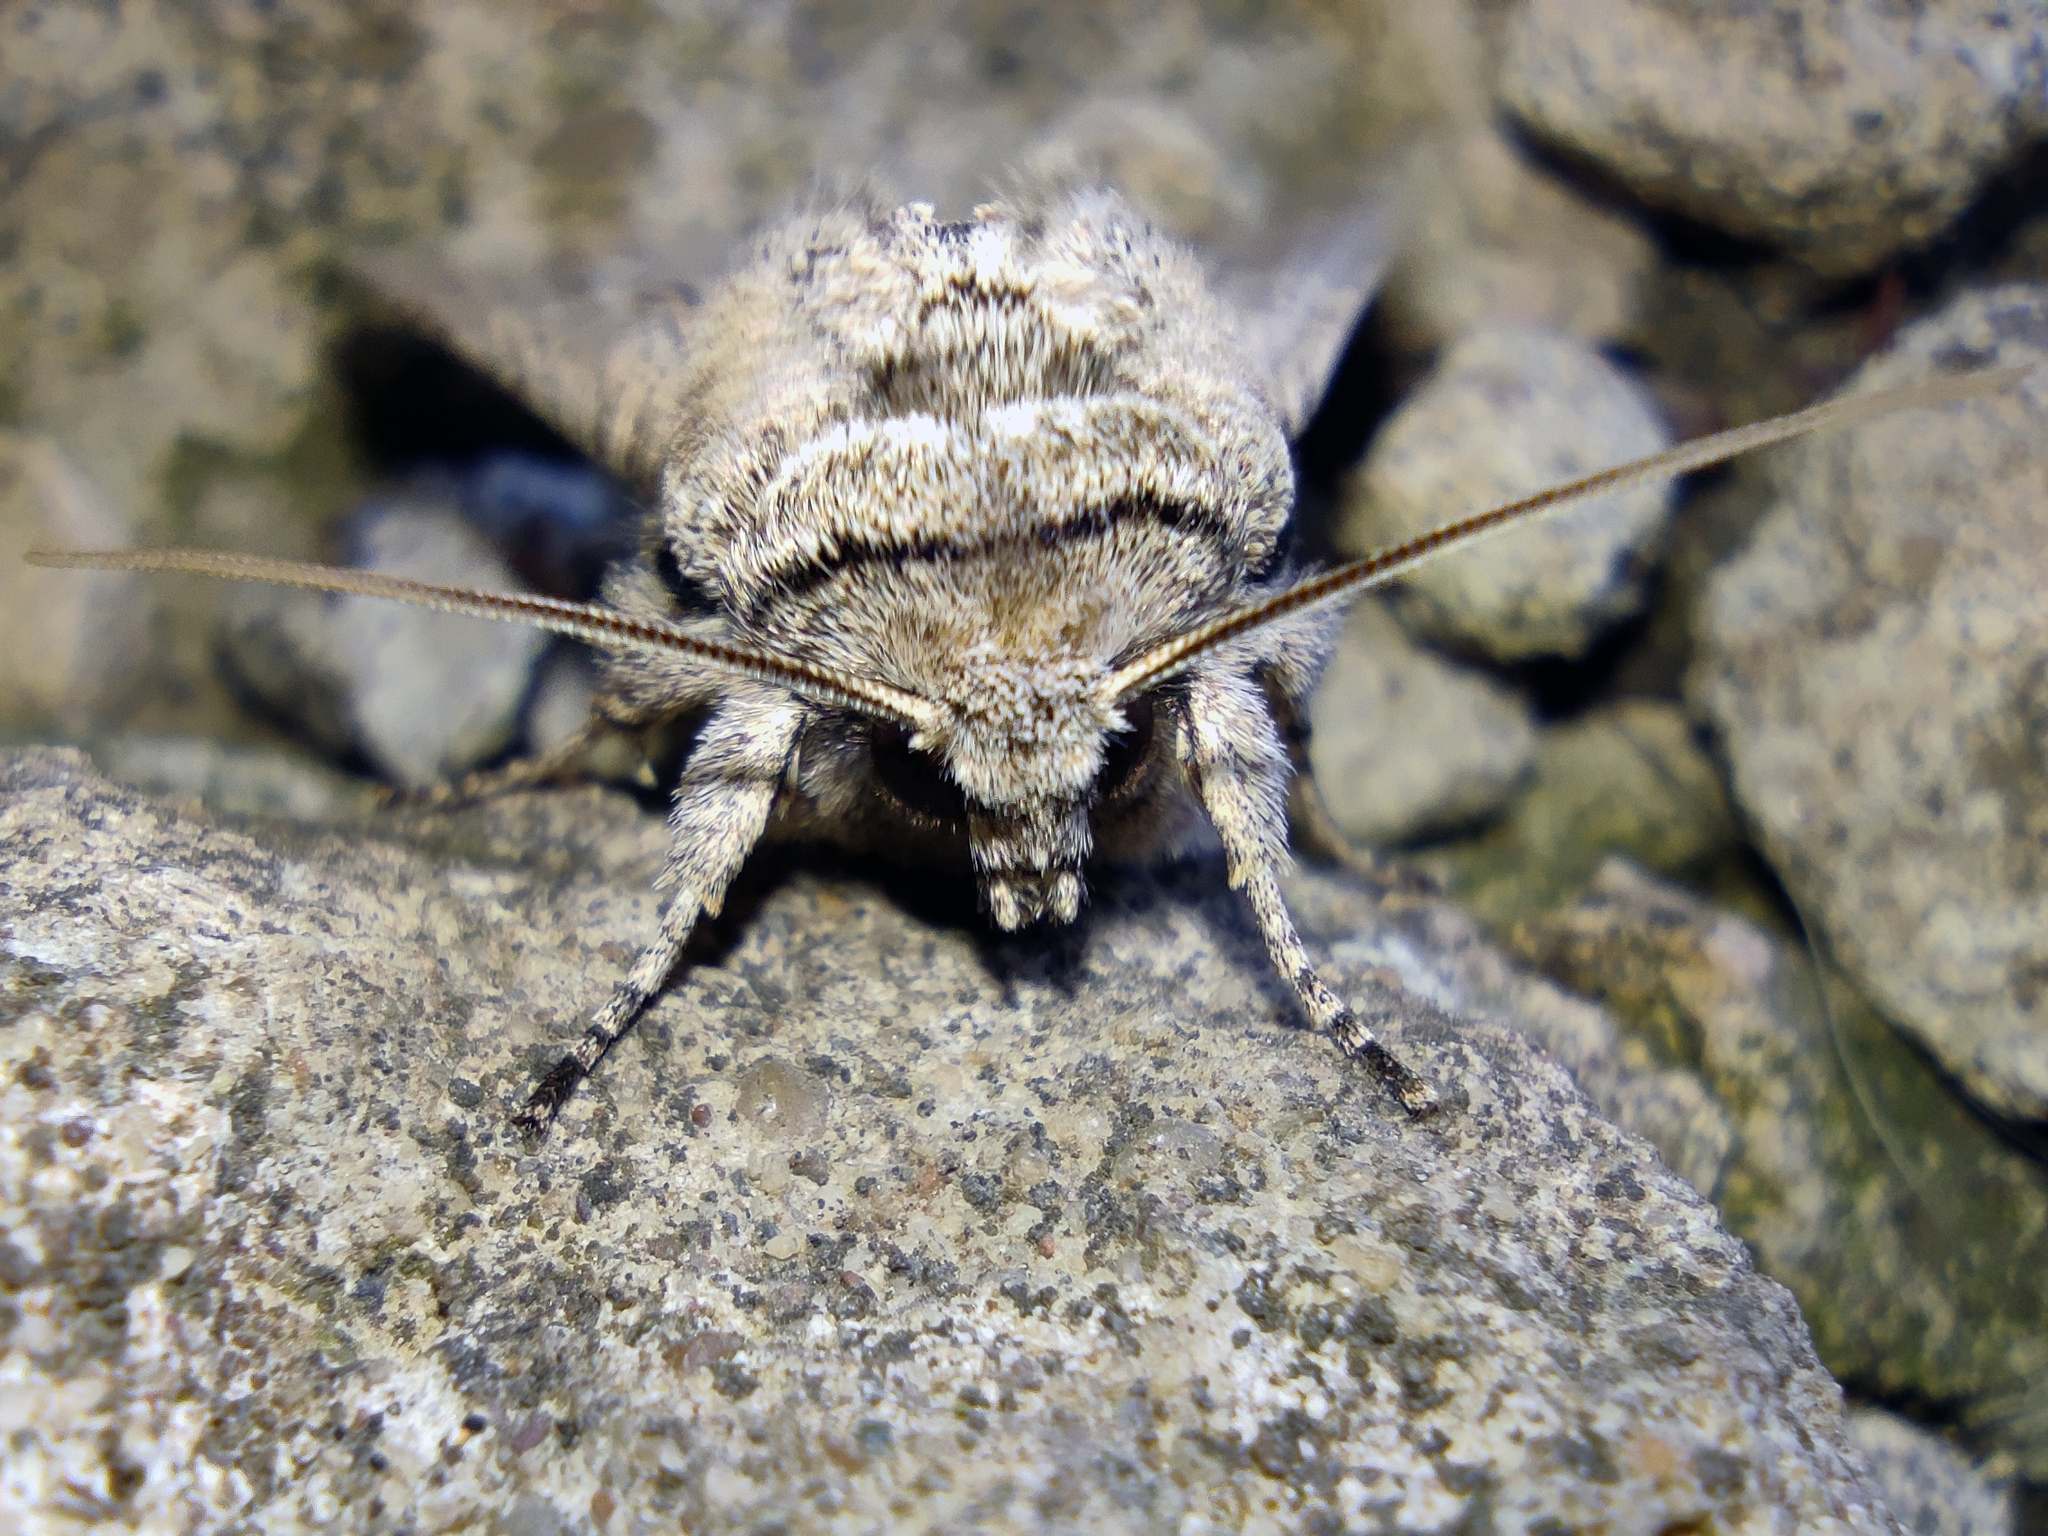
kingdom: Animalia
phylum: Arthropoda
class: Insecta
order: Lepidoptera
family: Noctuidae
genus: Egira
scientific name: Egira anatolica
